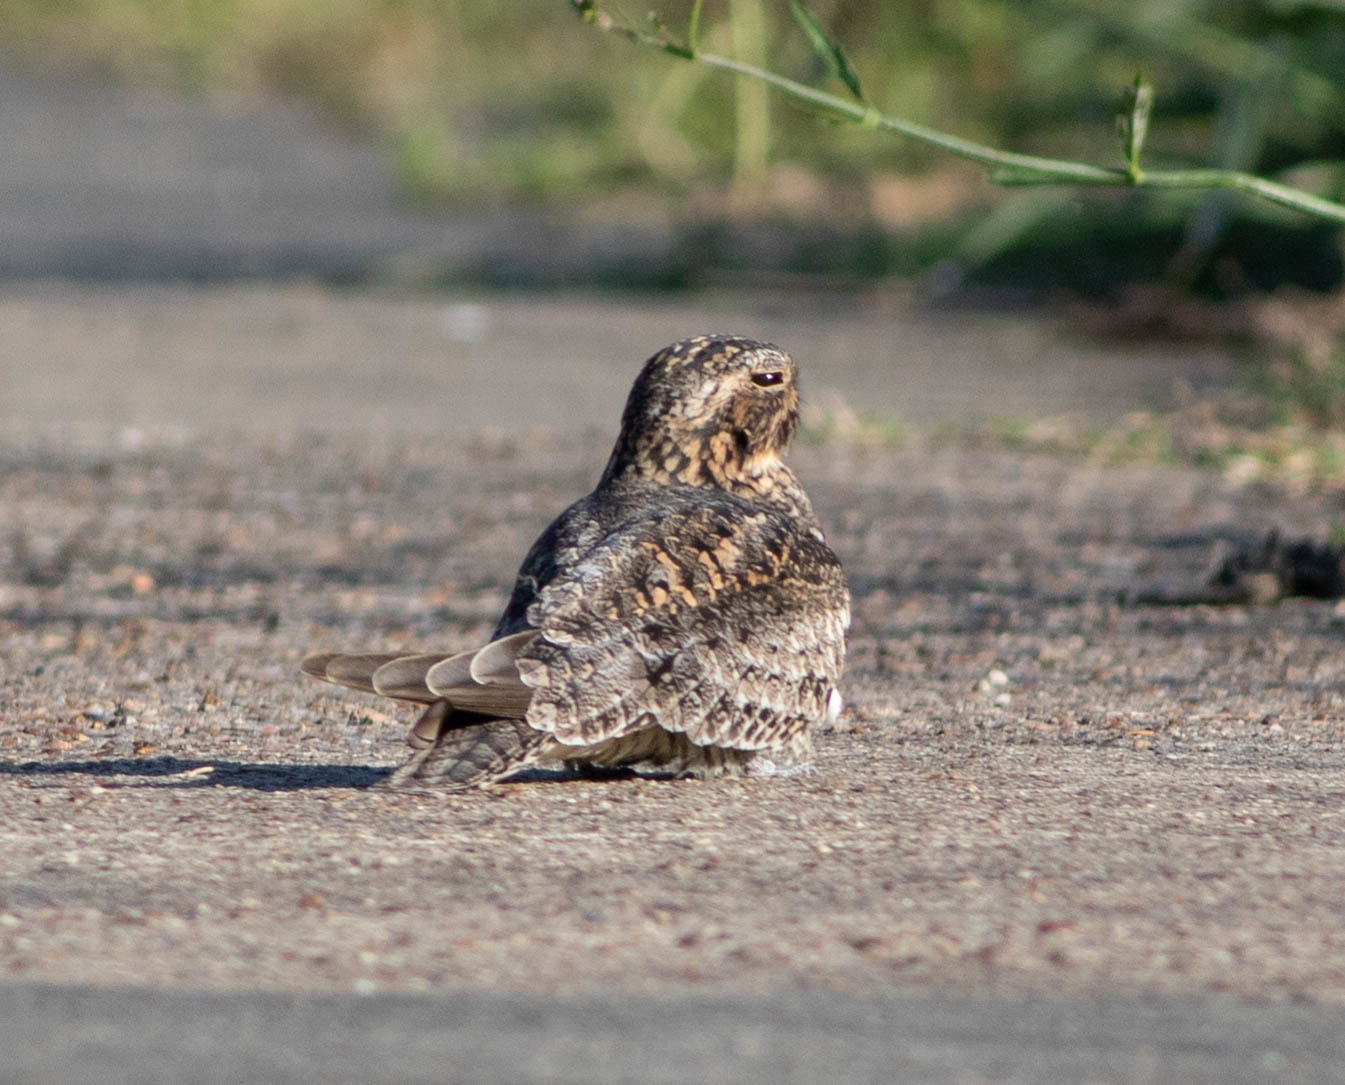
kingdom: Animalia
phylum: Chordata
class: Aves
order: Caprimulgiformes
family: Caprimulgidae
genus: Chordeiles
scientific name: Chordeiles minor
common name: Common nighthawk
